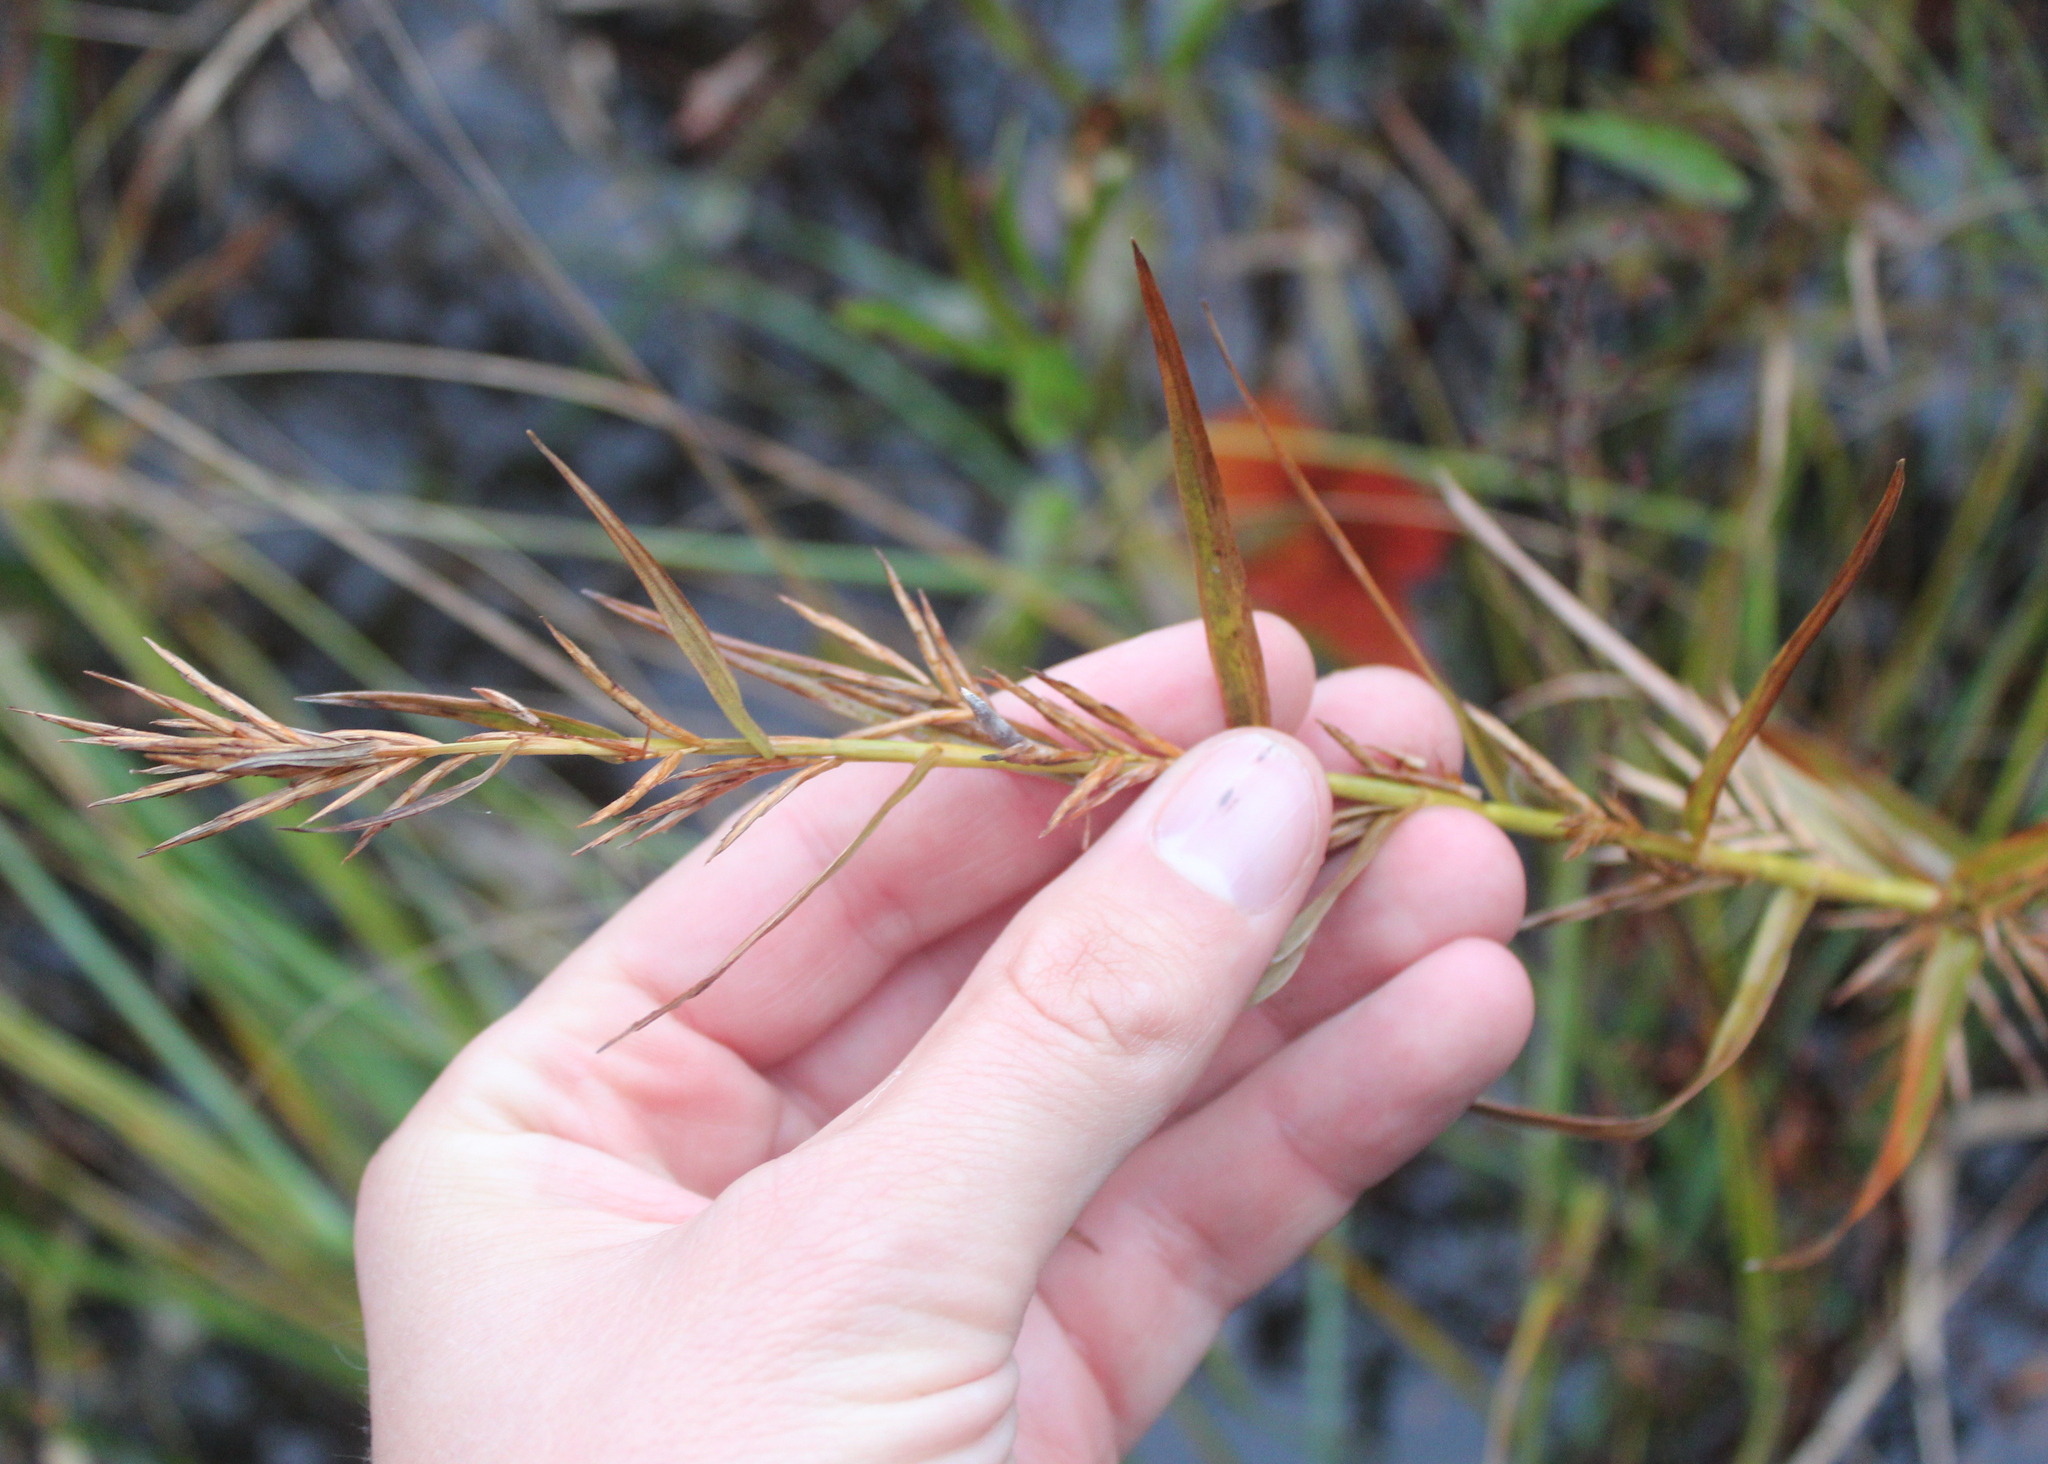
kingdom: Plantae
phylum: Tracheophyta
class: Liliopsida
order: Poales
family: Cyperaceae
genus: Dulichium
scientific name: Dulichium arundinaceum
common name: Three-way sedge
